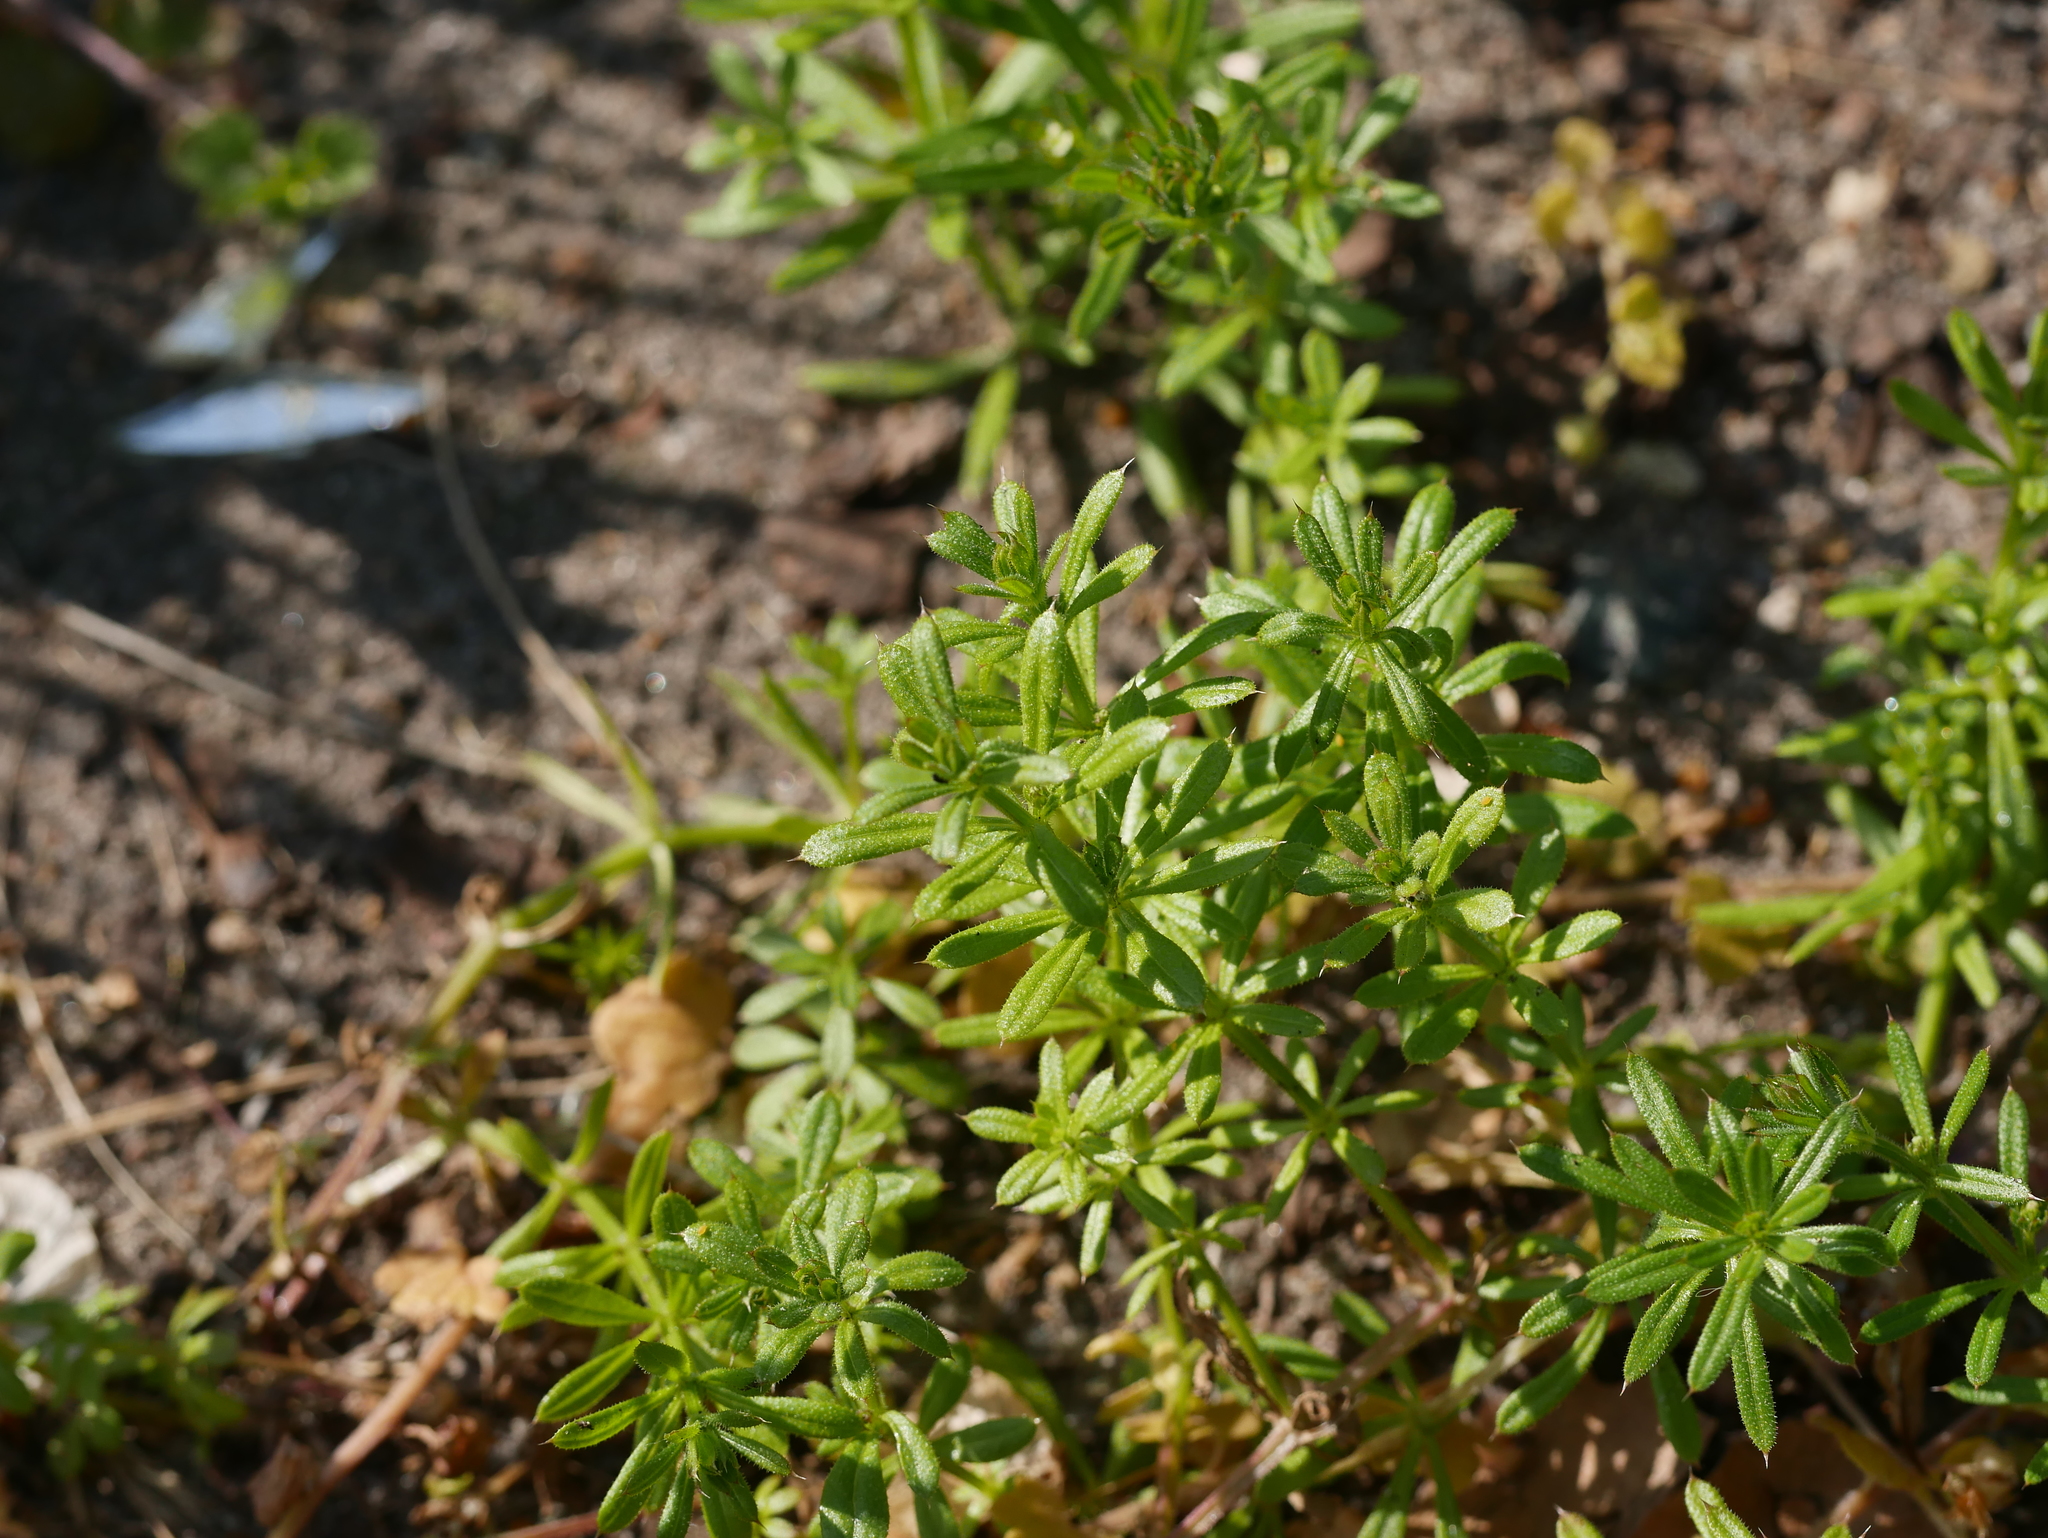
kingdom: Plantae
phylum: Tracheophyta
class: Magnoliopsida
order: Gentianales
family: Rubiaceae
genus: Galium
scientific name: Galium aparine
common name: Cleavers
